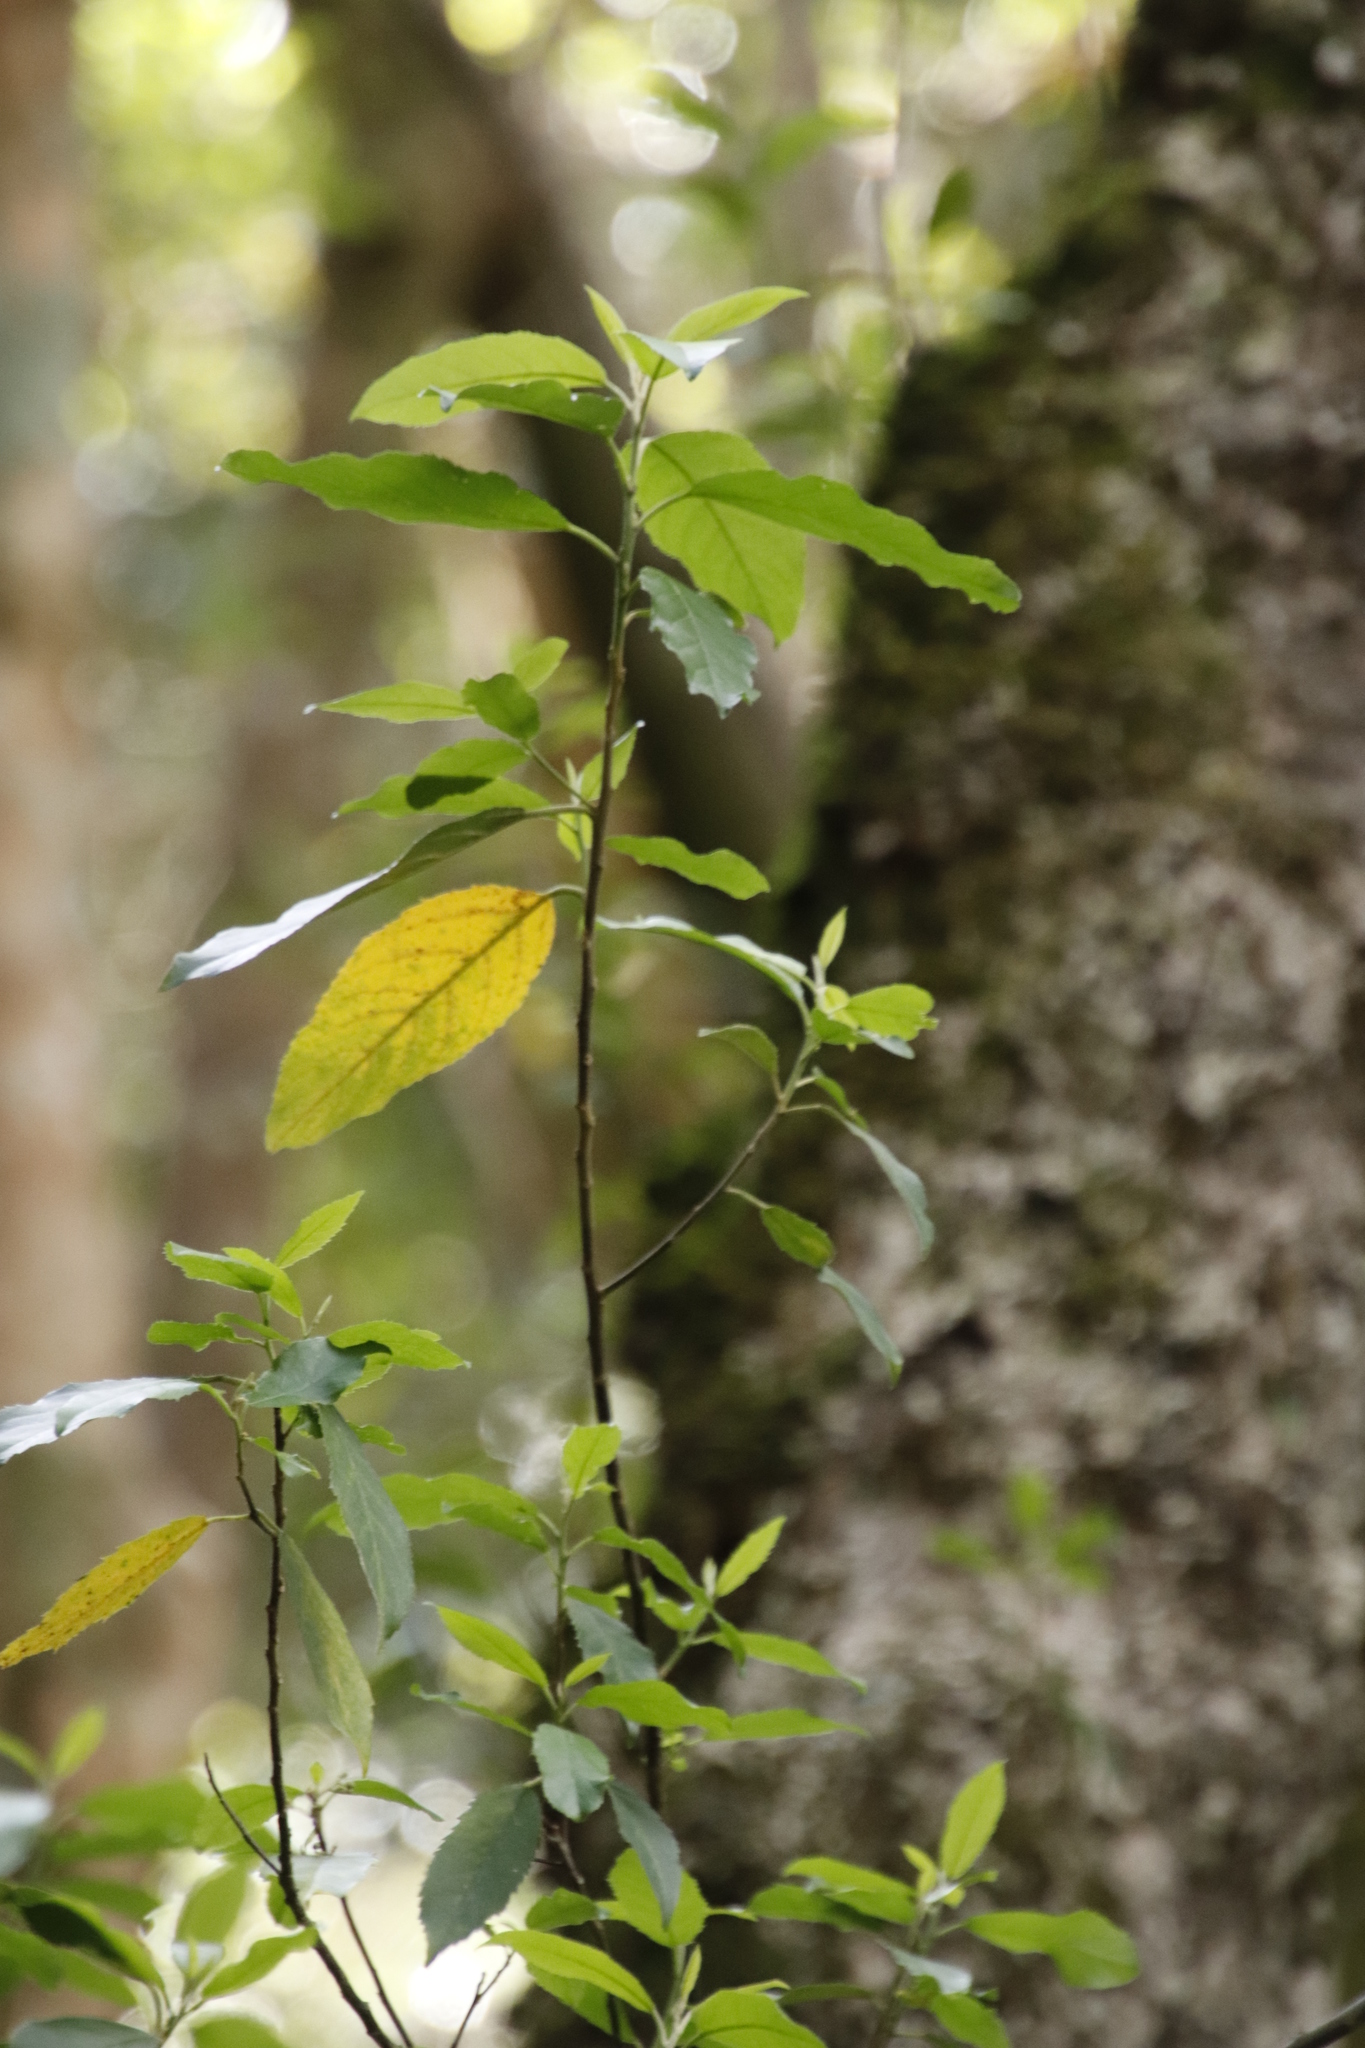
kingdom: Plantae
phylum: Tracheophyta
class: Magnoliopsida
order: Malpighiales
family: Achariaceae
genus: Kiggelaria
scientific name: Kiggelaria africana
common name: Wild peach
